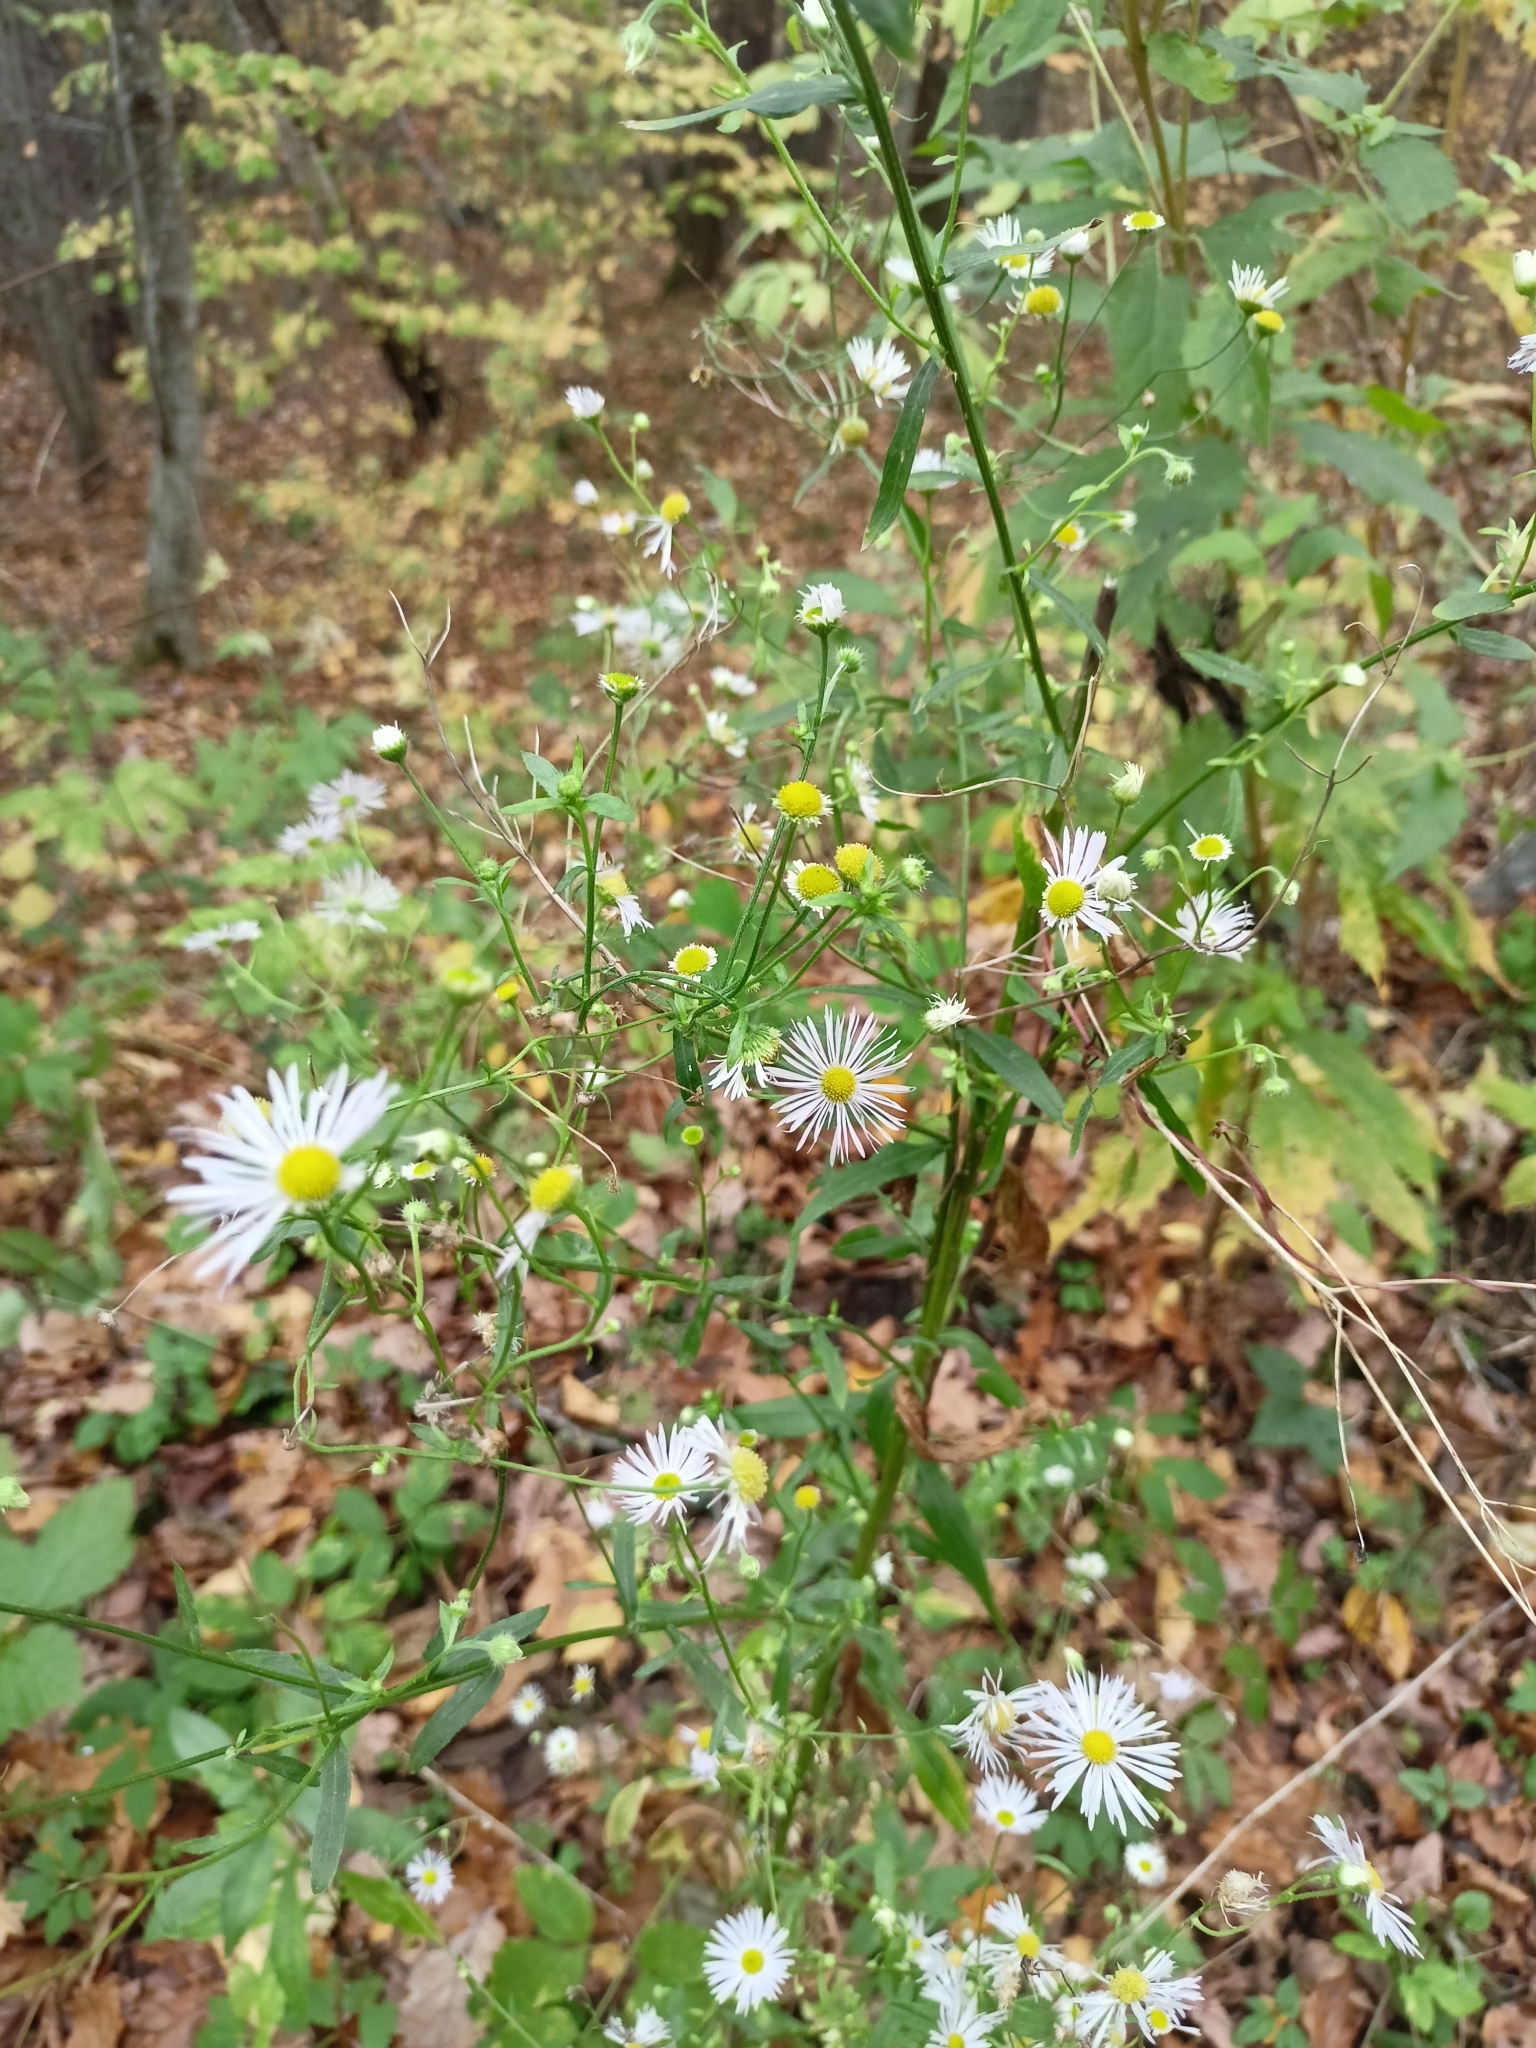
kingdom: Plantae
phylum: Tracheophyta
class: Magnoliopsida
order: Asterales
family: Asteraceae
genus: Erigeron
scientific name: Erigeron annuus
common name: Tall fleabane
